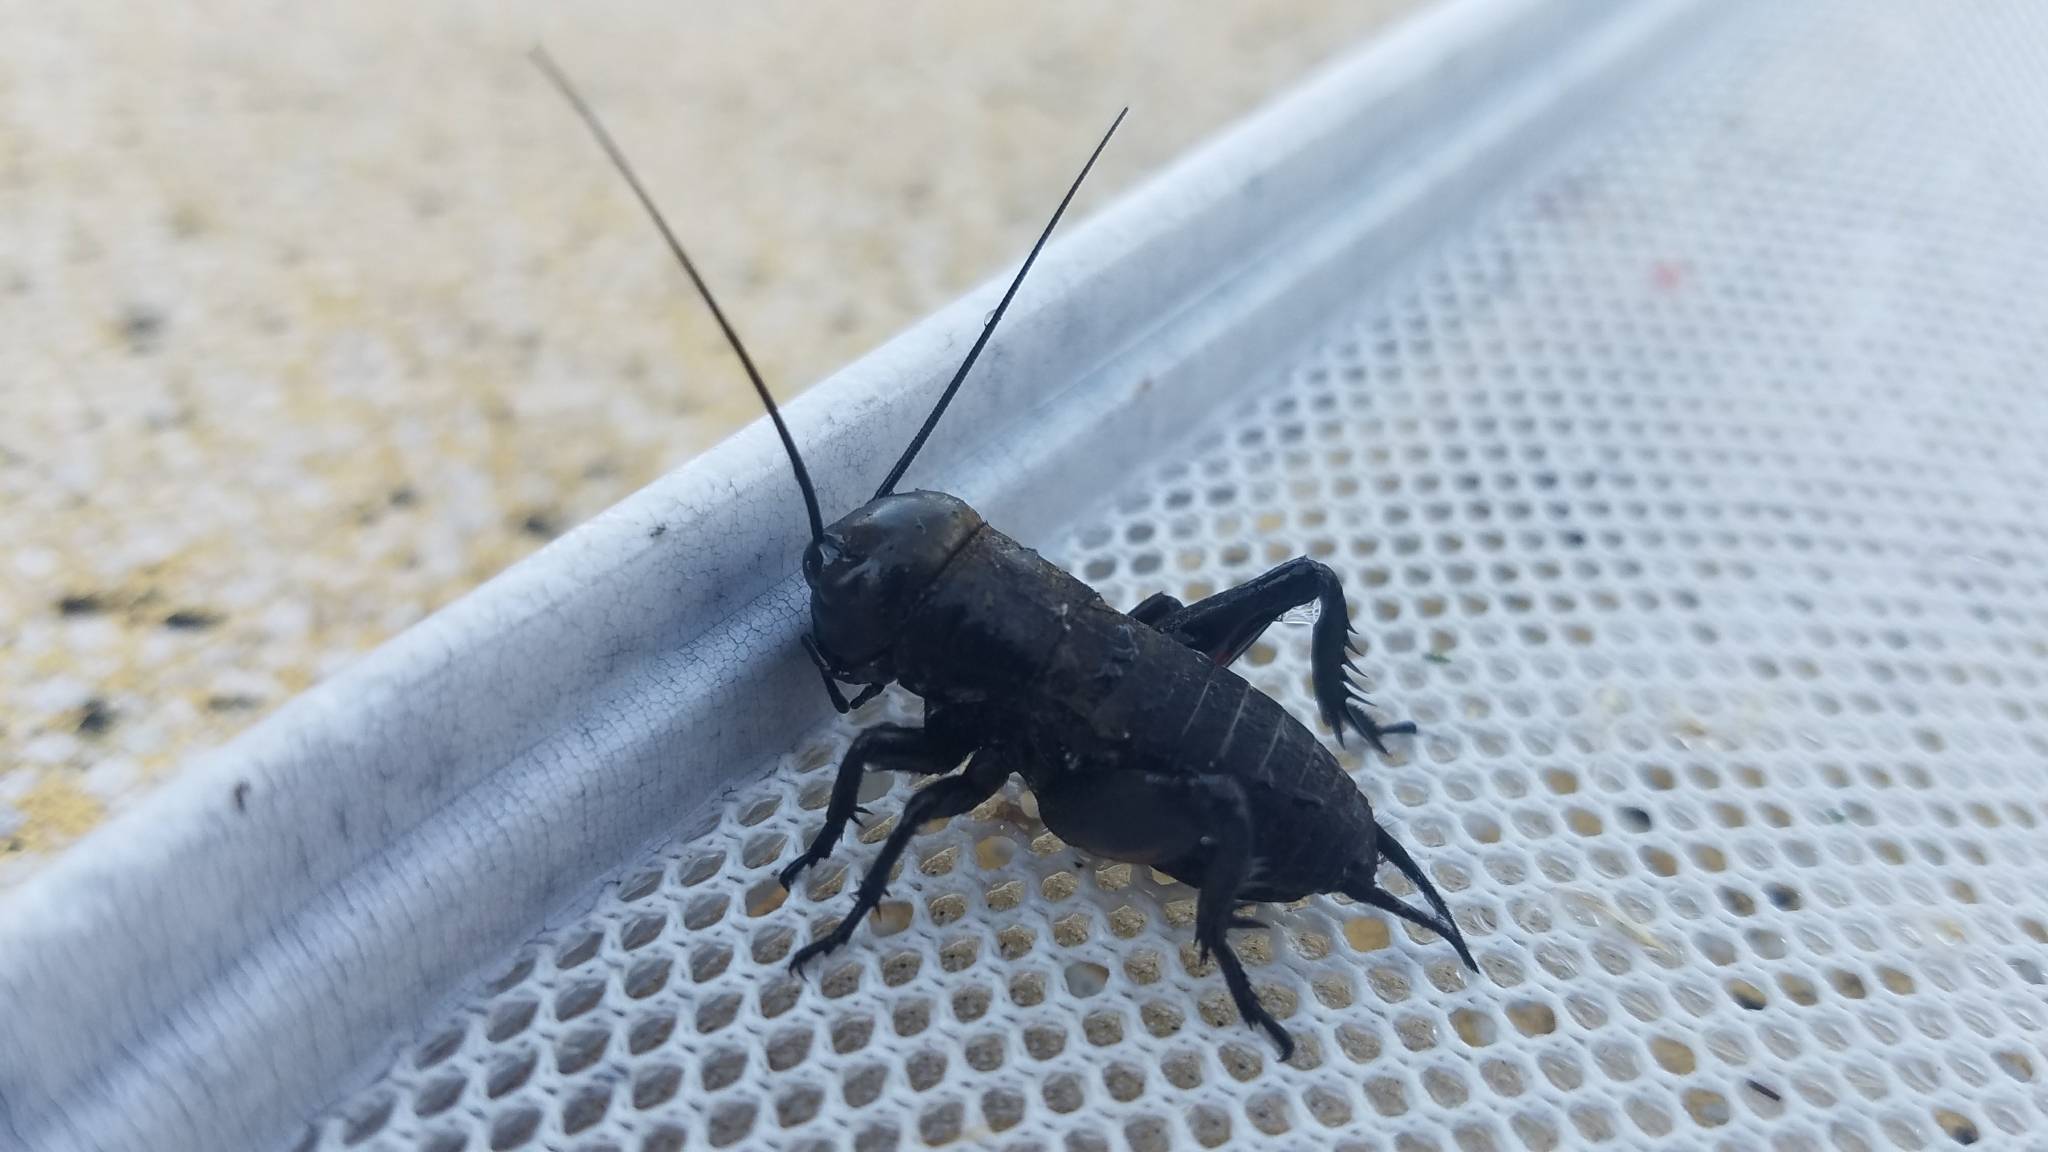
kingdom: Animalia
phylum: Arthropoda
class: Insecta
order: Orthoptera
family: Gryllidae
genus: Gryllus
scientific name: Gryllus campestris
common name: Field cricket
